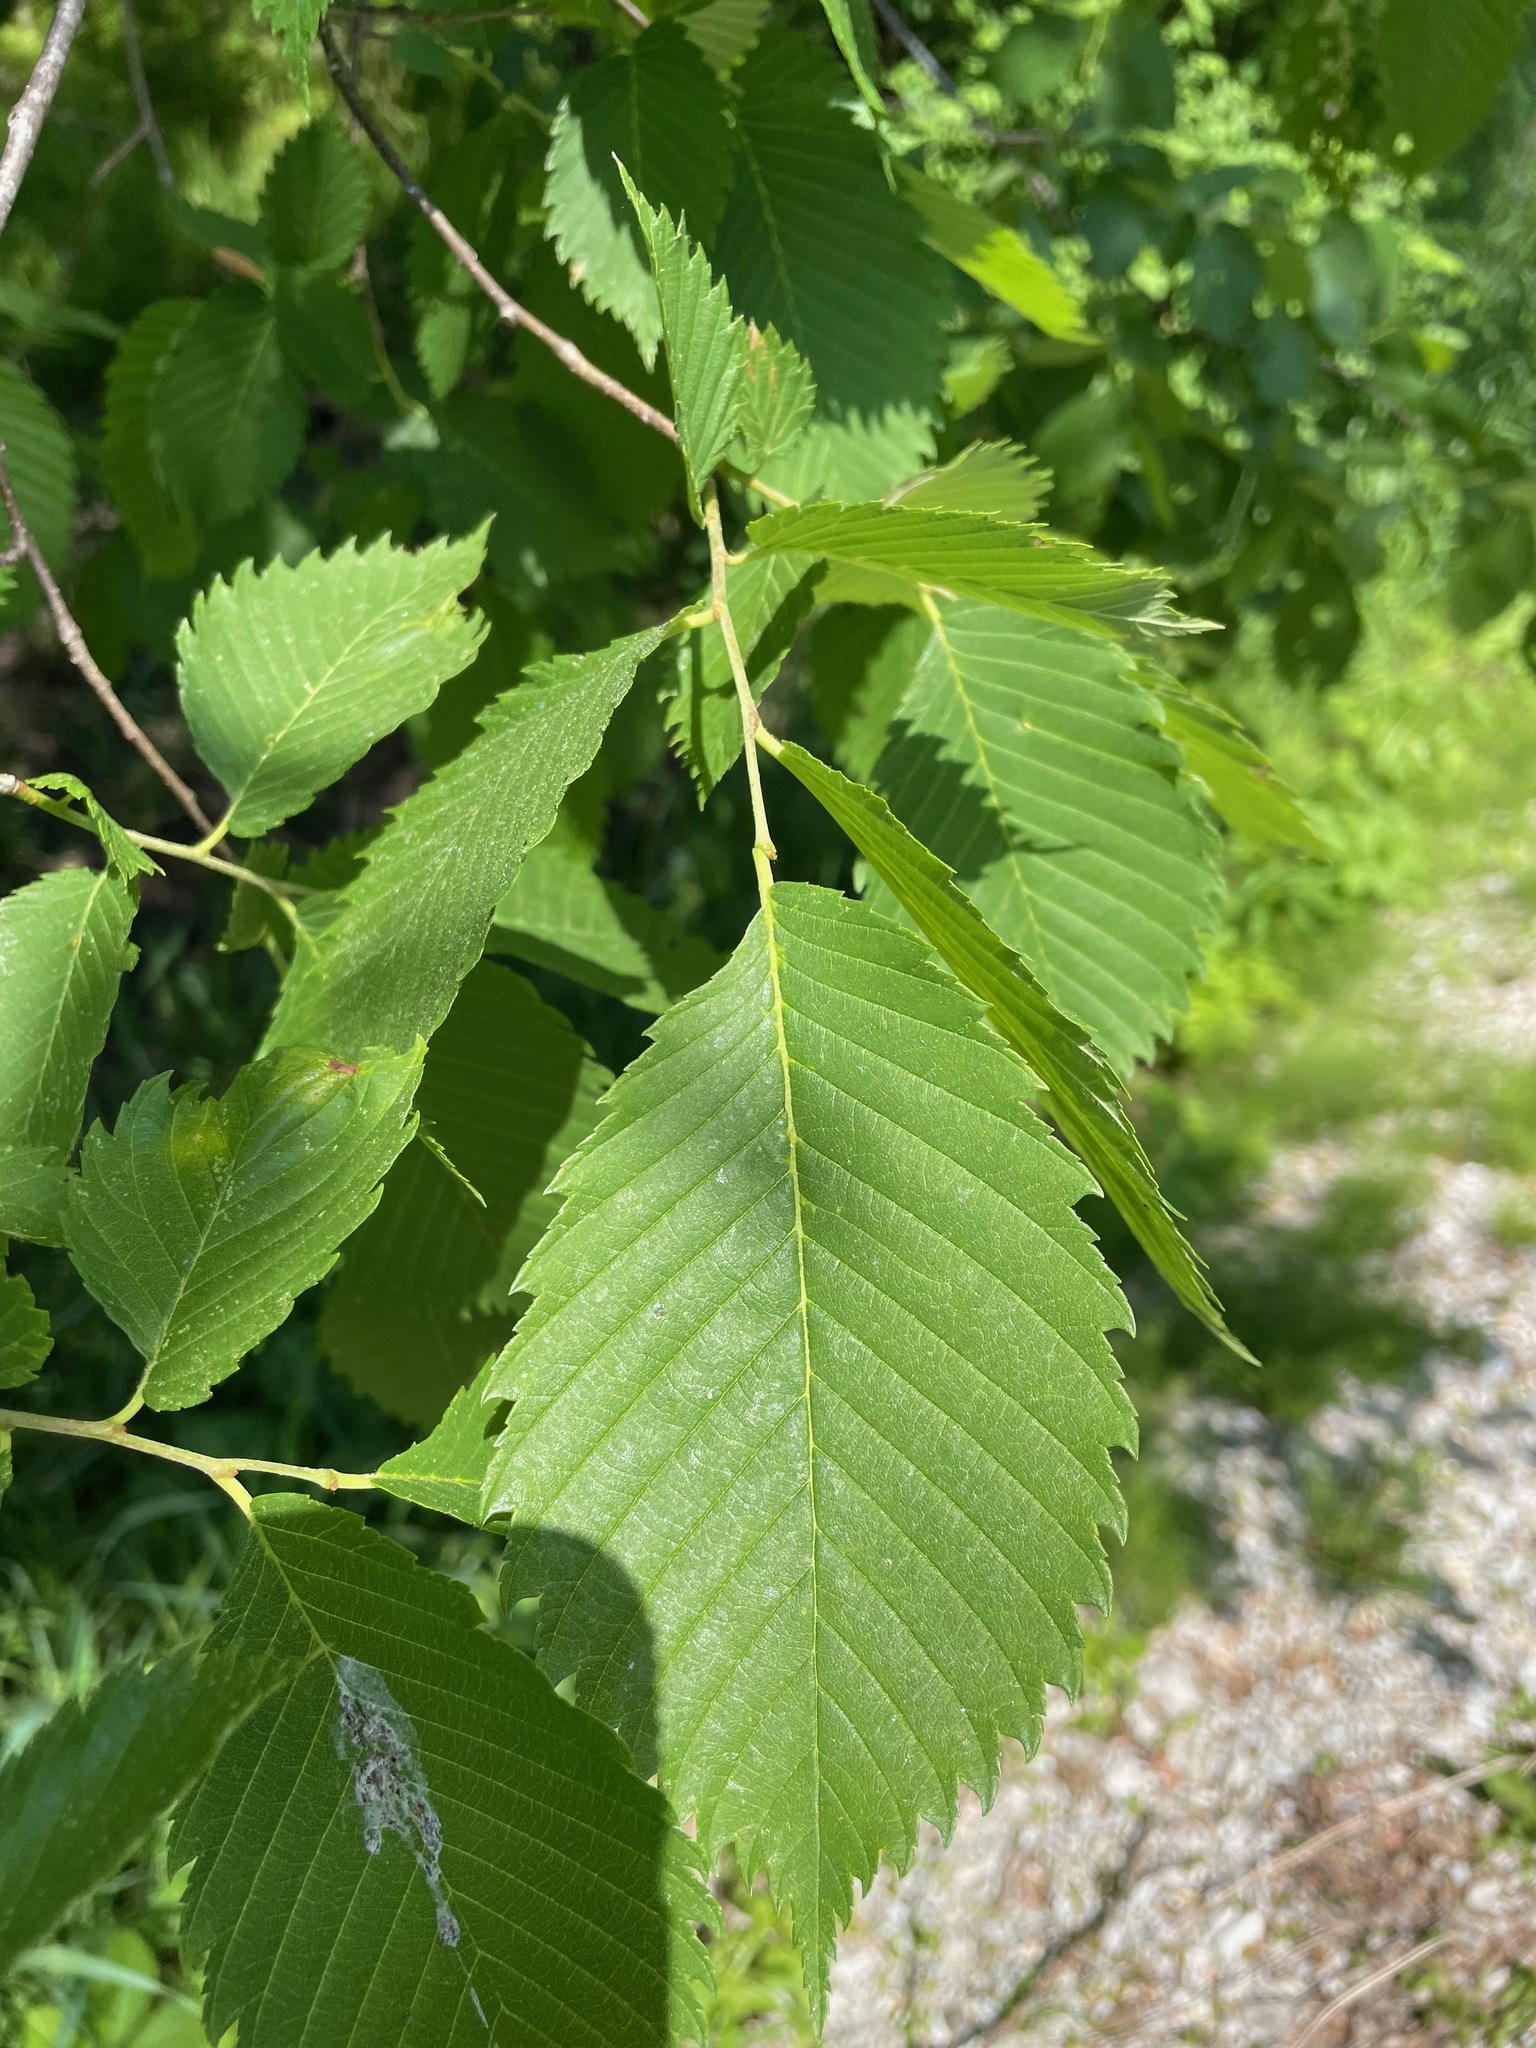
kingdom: Plantae
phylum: Tracheophyta
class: Magnoliopsida
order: Rosales
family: Ulmaceae
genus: Ulmus
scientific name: Ulmus americana
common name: American elm
